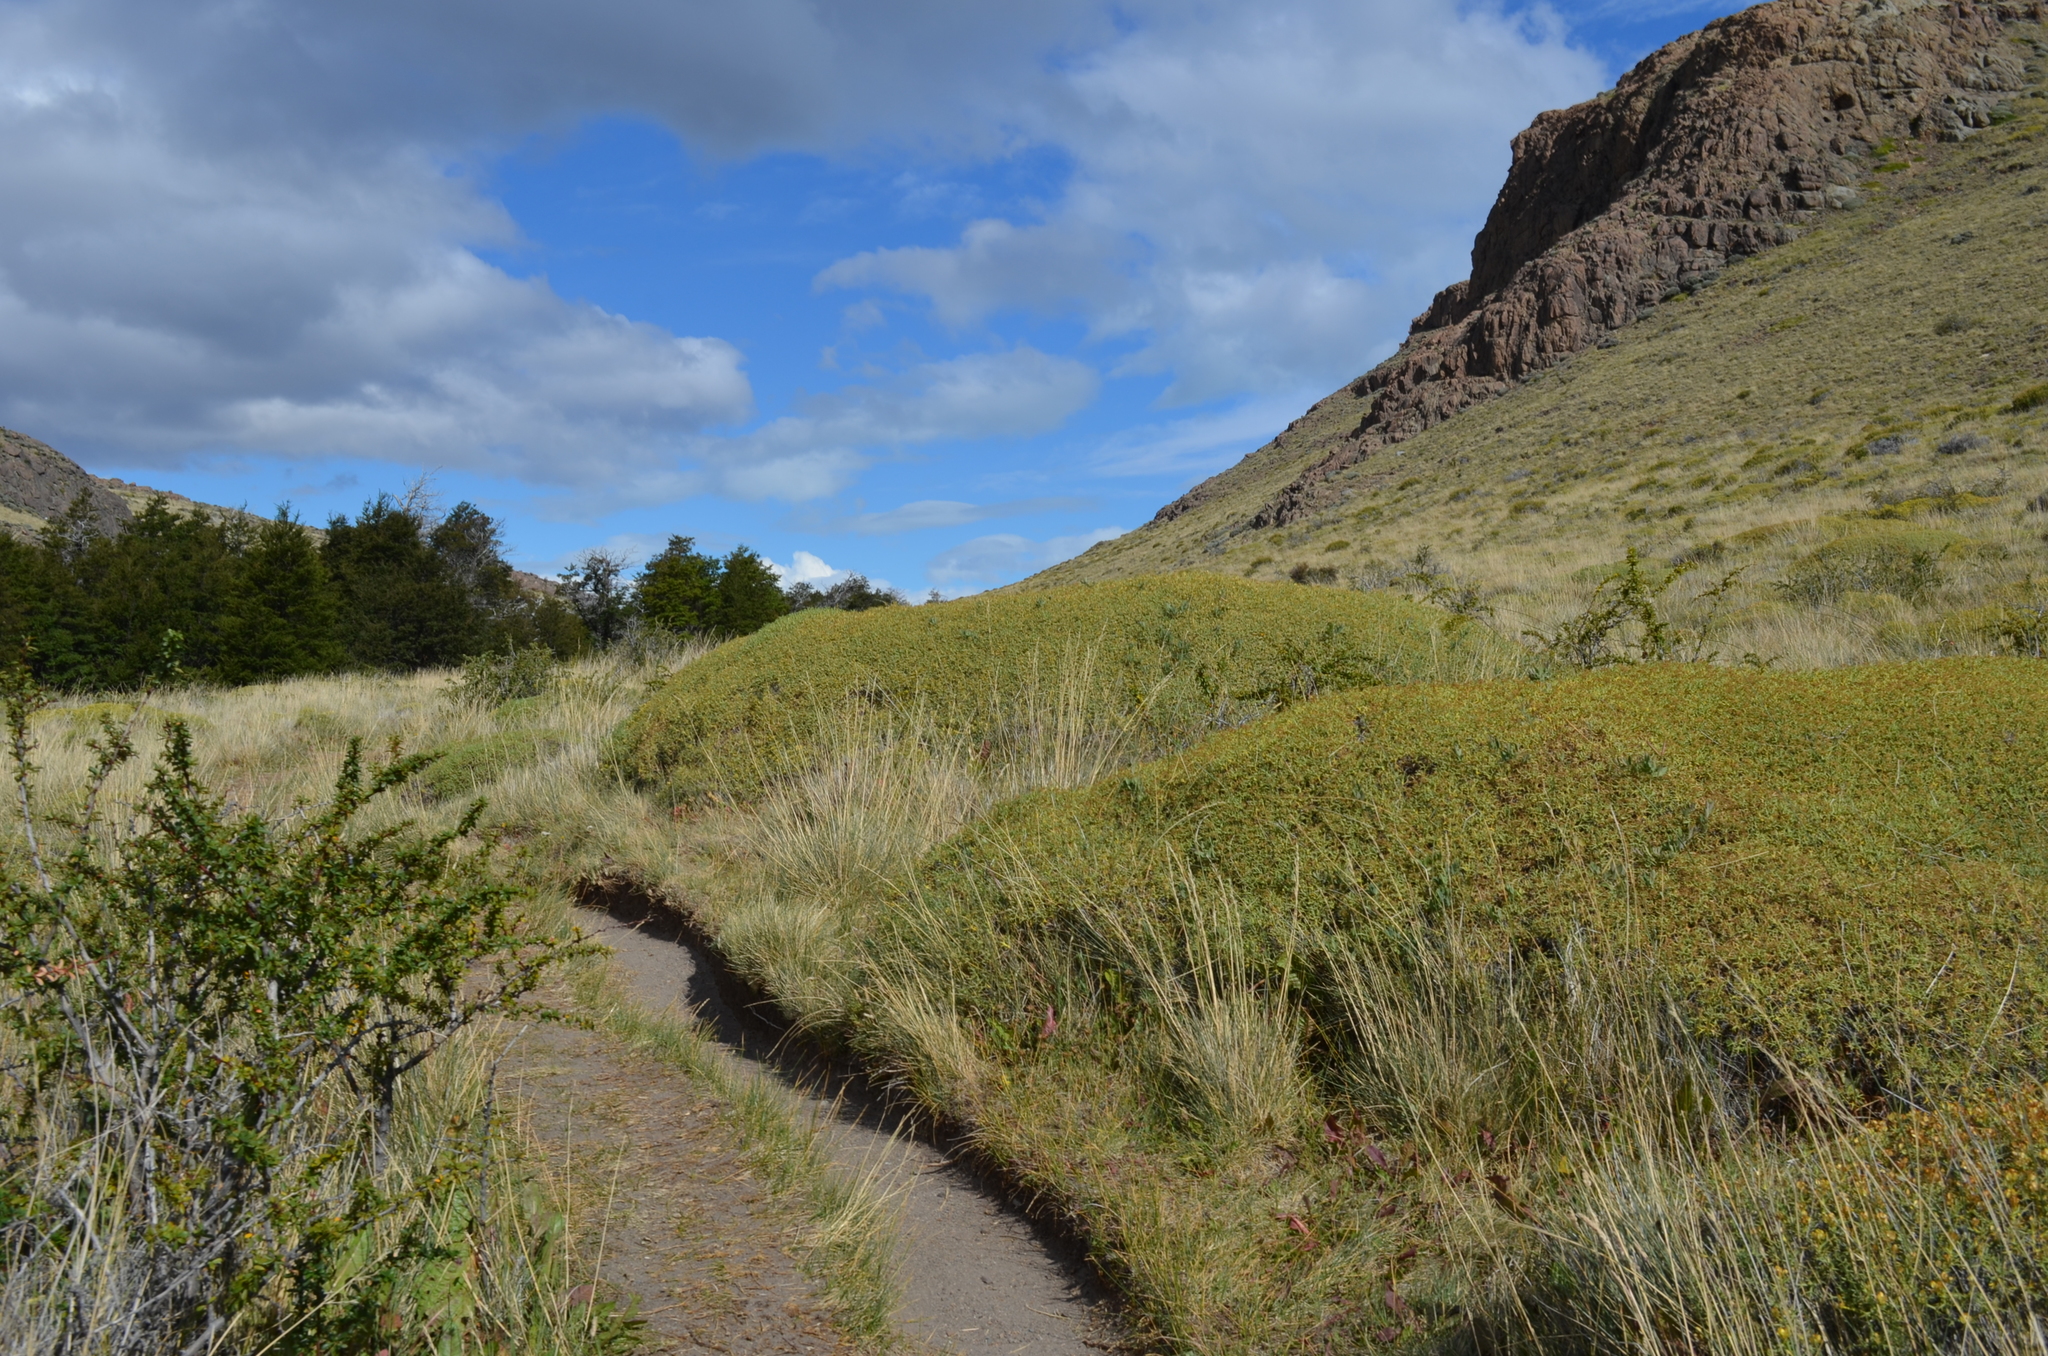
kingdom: Plantae
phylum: Tracheophyta
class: Magnoliopsida
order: Apiales
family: Apiaceae
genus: Azorella
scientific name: Azorella prolifera
